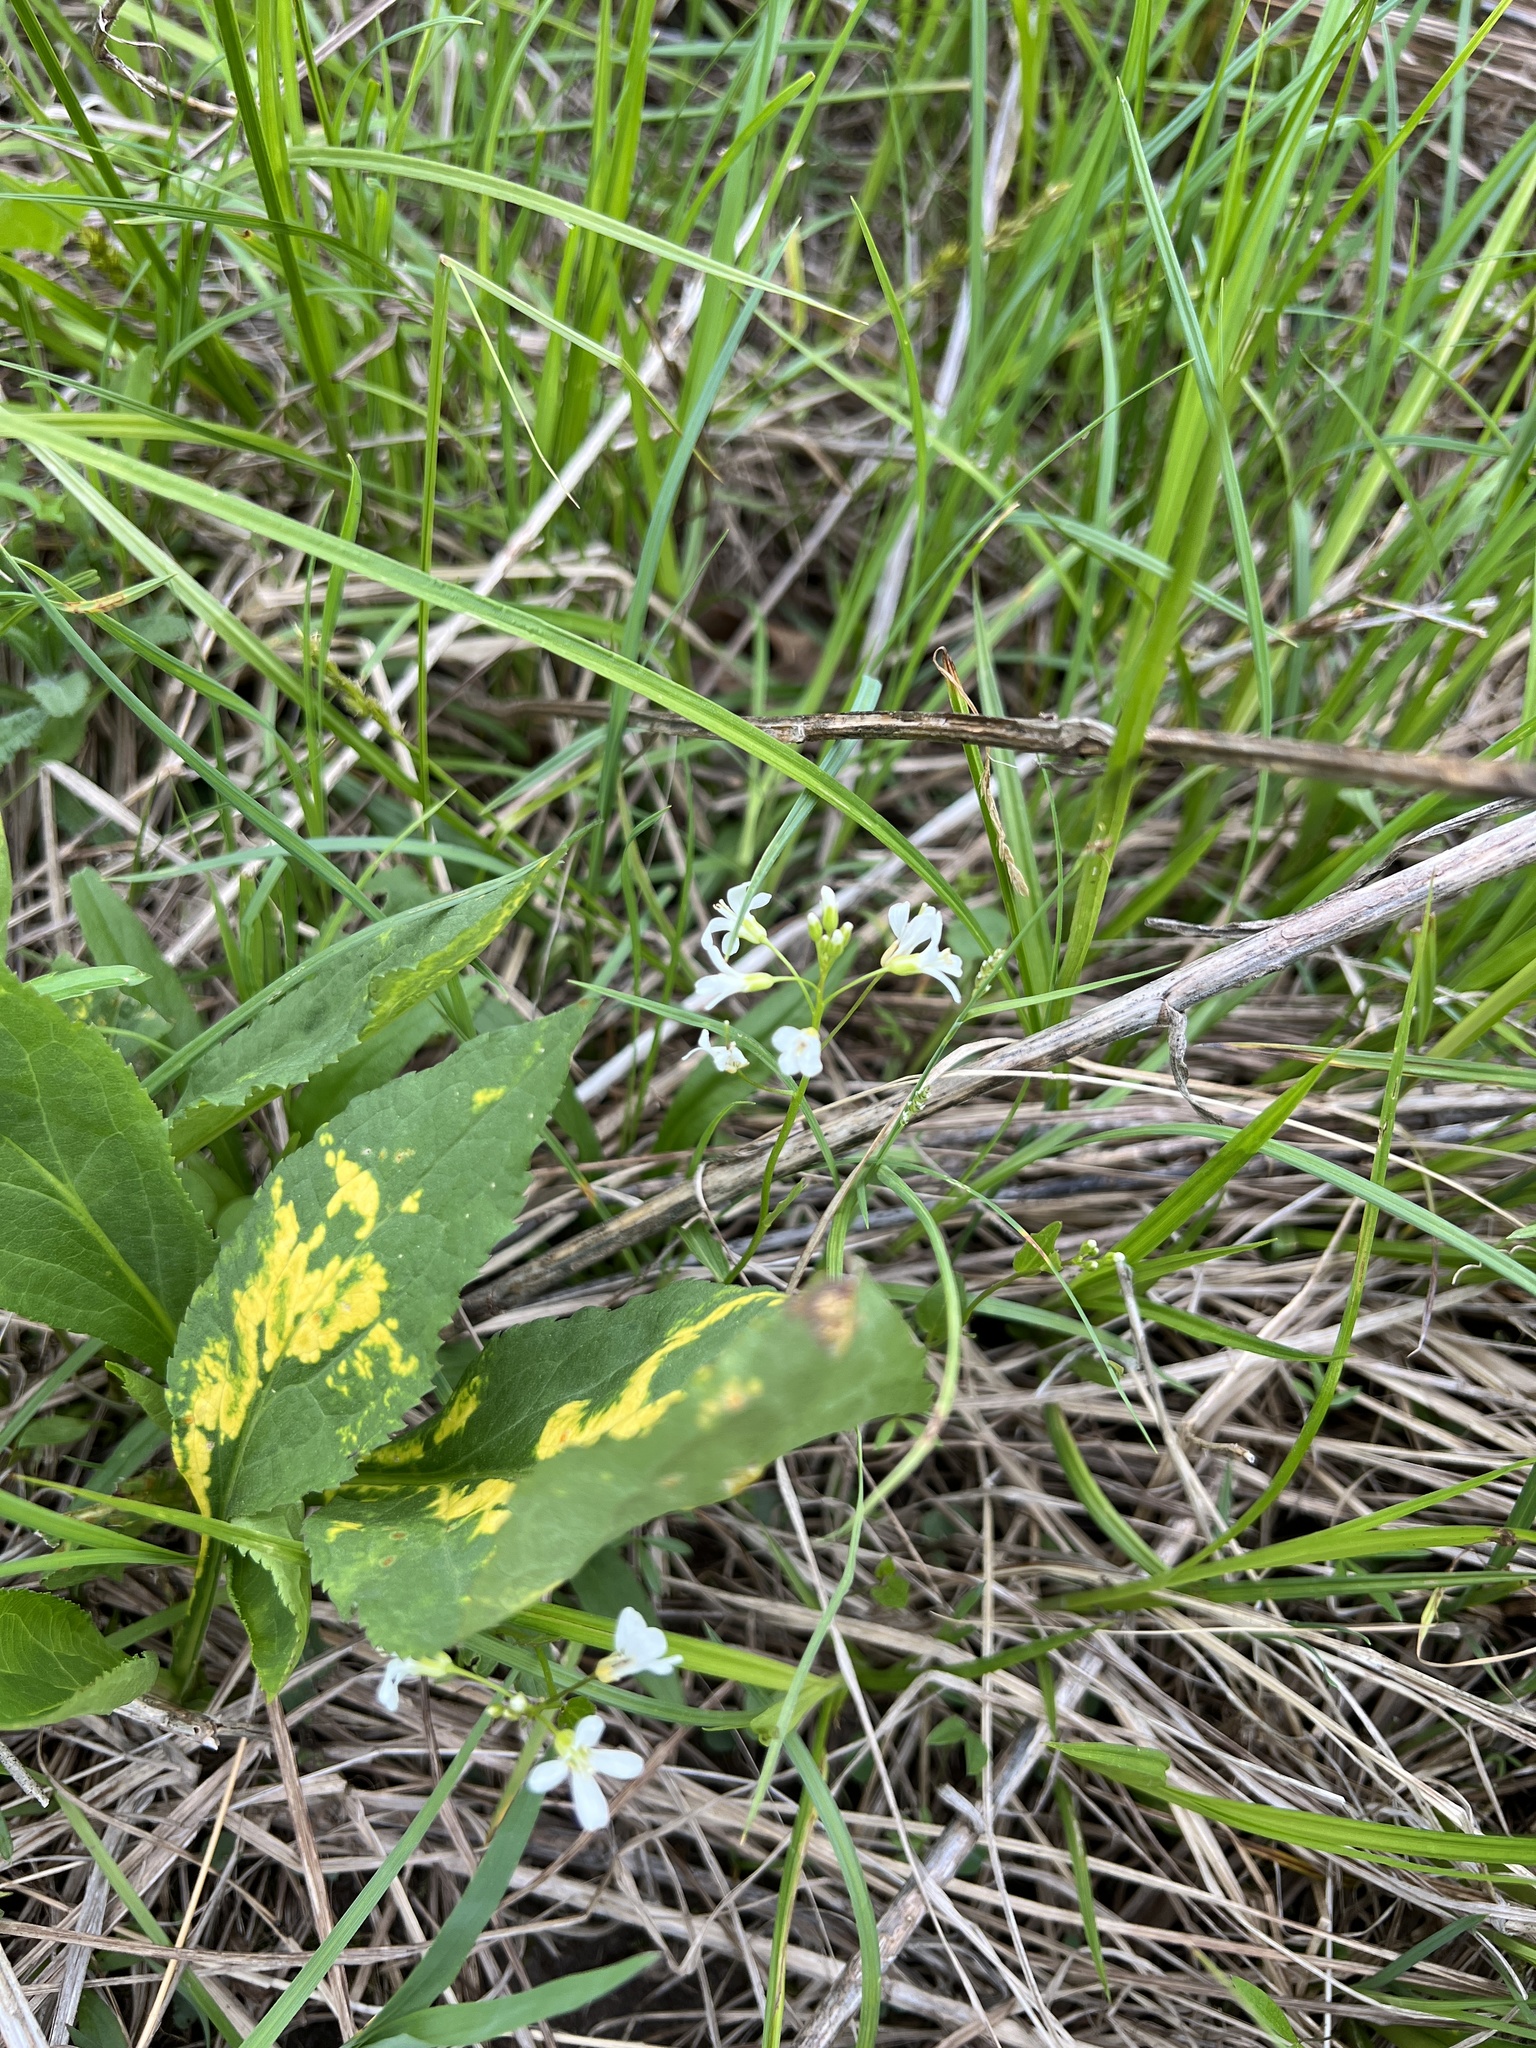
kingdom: Plantae
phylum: Tracheophyta
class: Magnoliopsida
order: Brassicales
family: Brassicaceae
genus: Cardamine
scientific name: Cardamine bulbosa
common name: Spring cress
